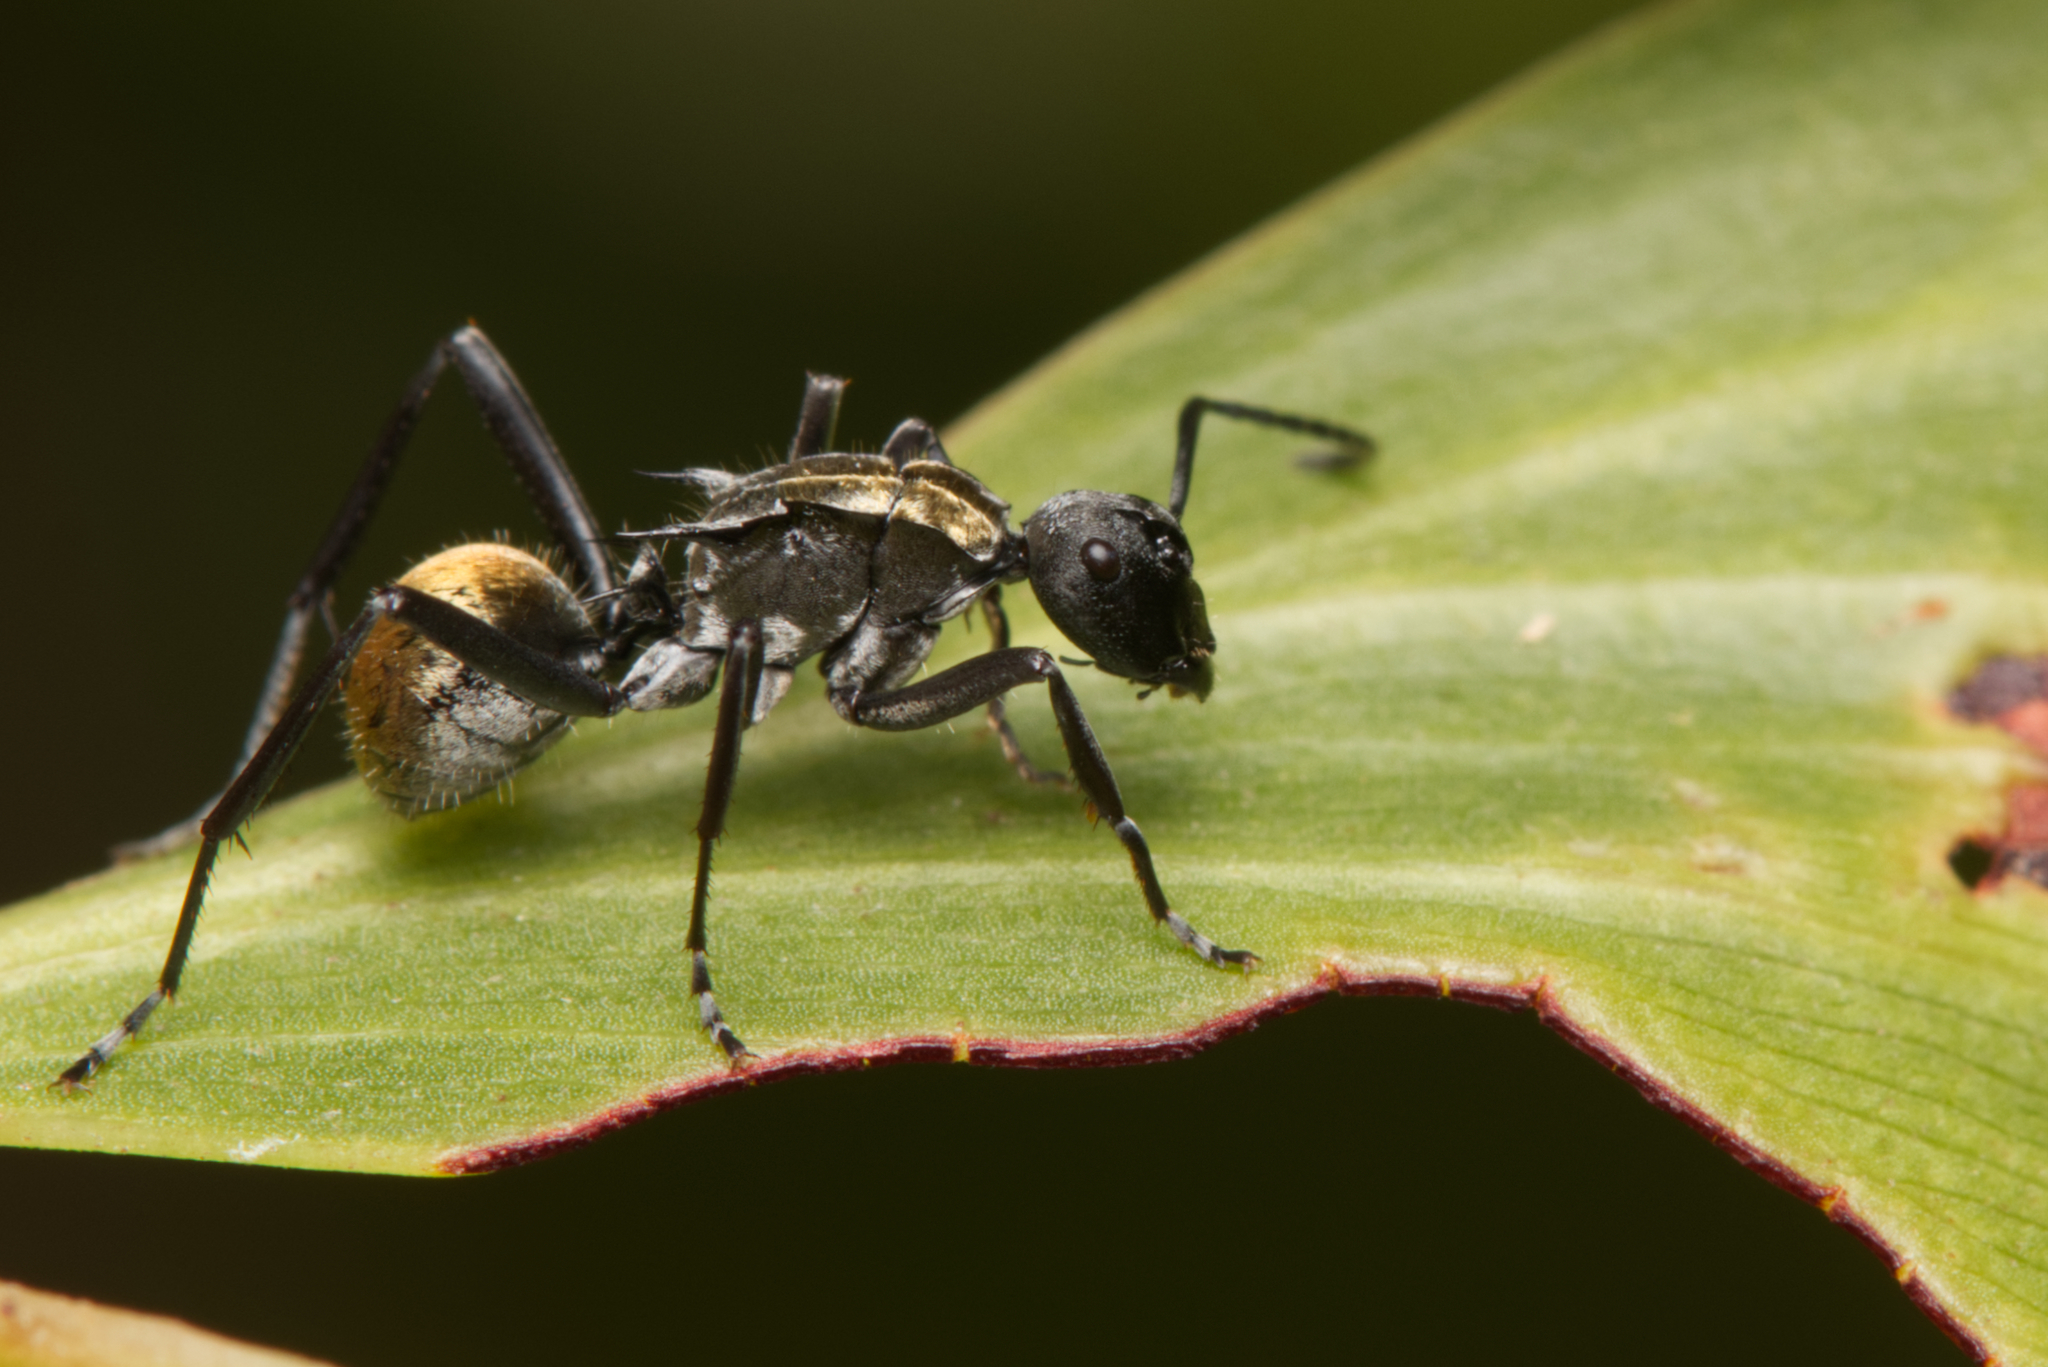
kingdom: Animalia
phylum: Arthropoda
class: Insecta
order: Hymenoptera
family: Formicidae
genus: Polyrhachis
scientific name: Polyrhachis ammon
